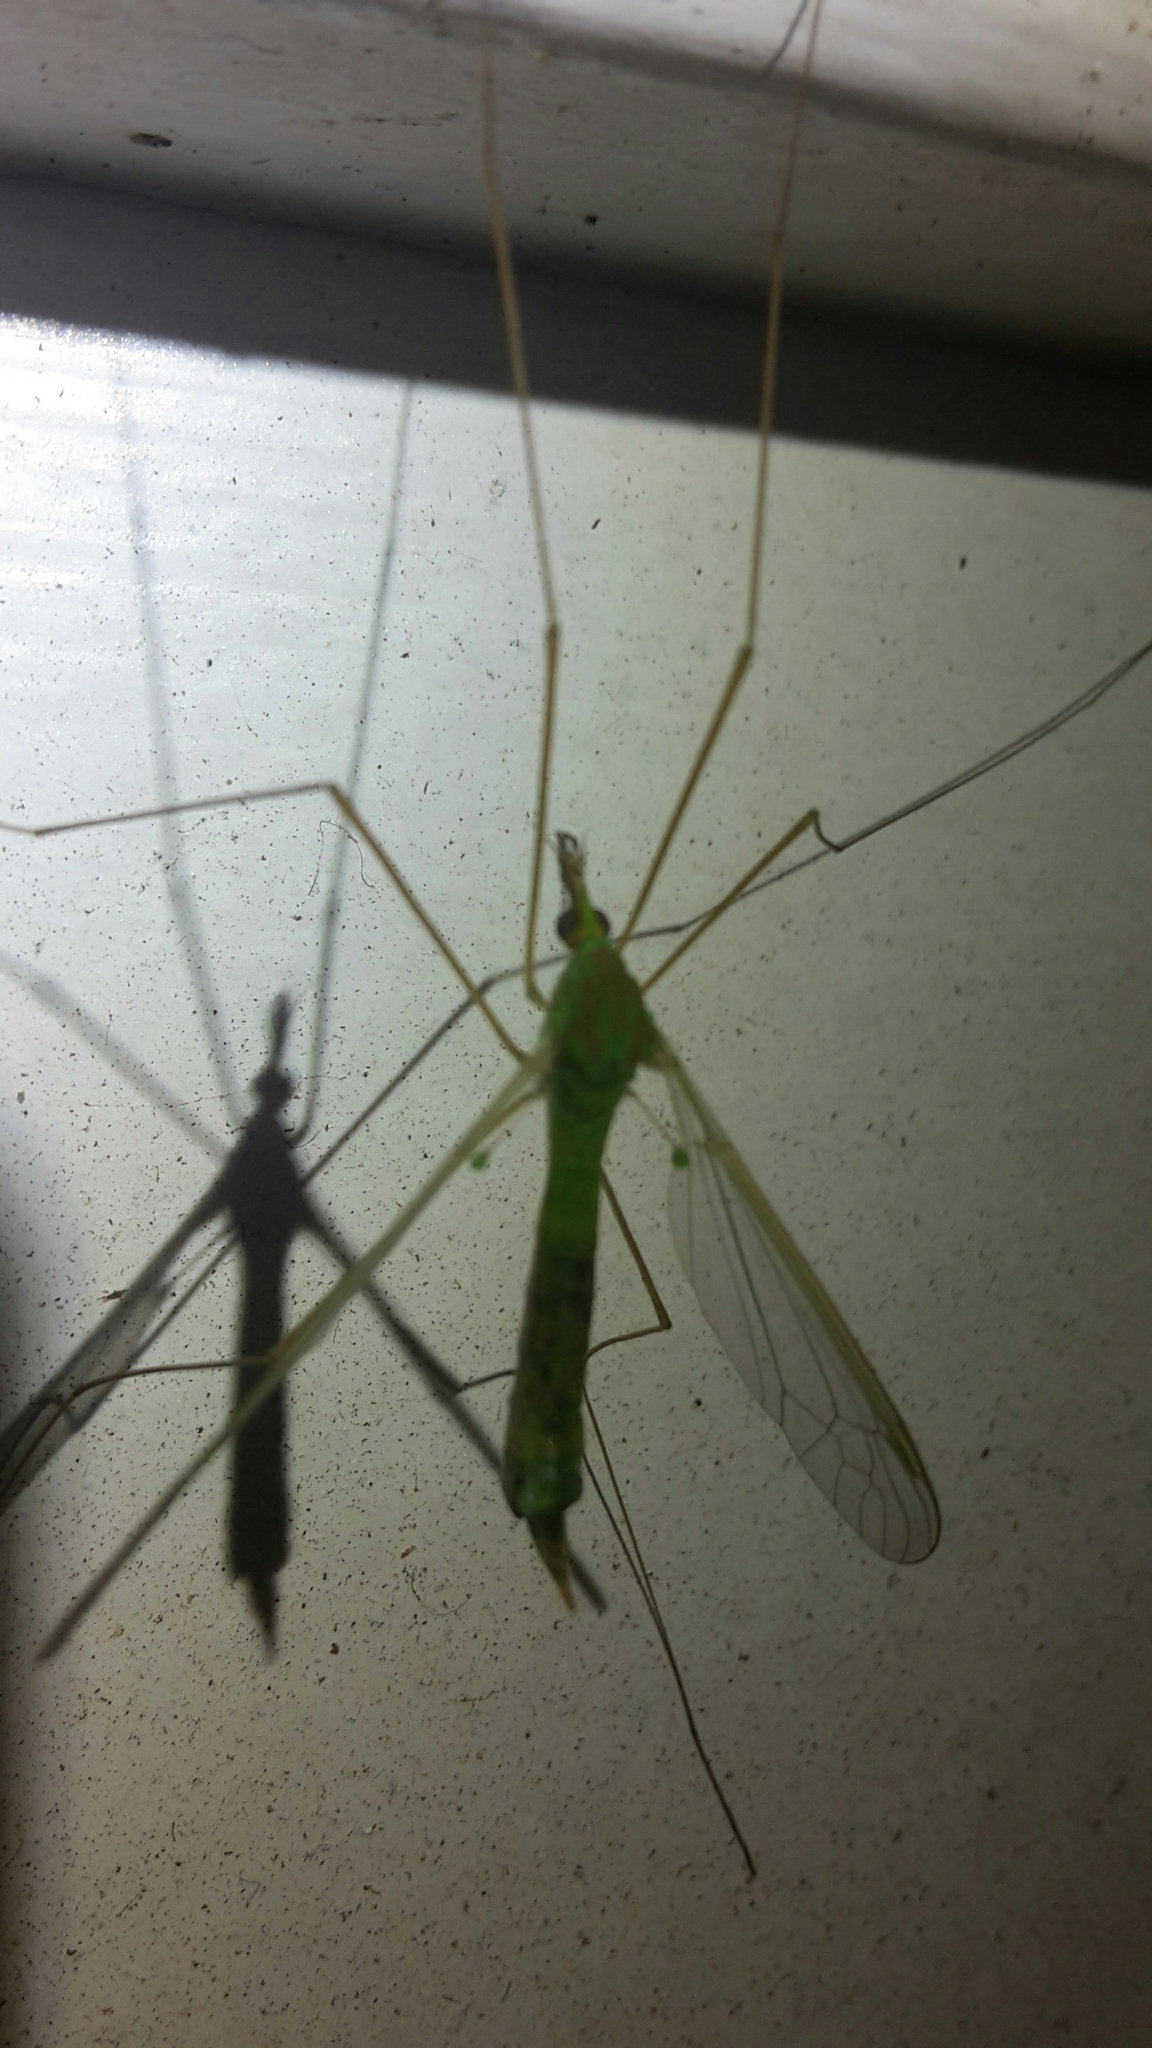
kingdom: Animalia
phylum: Arthropoda
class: Insecta
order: Diptera
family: Tipulidae
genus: Leptotarsus
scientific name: Leptotarsus virescens
